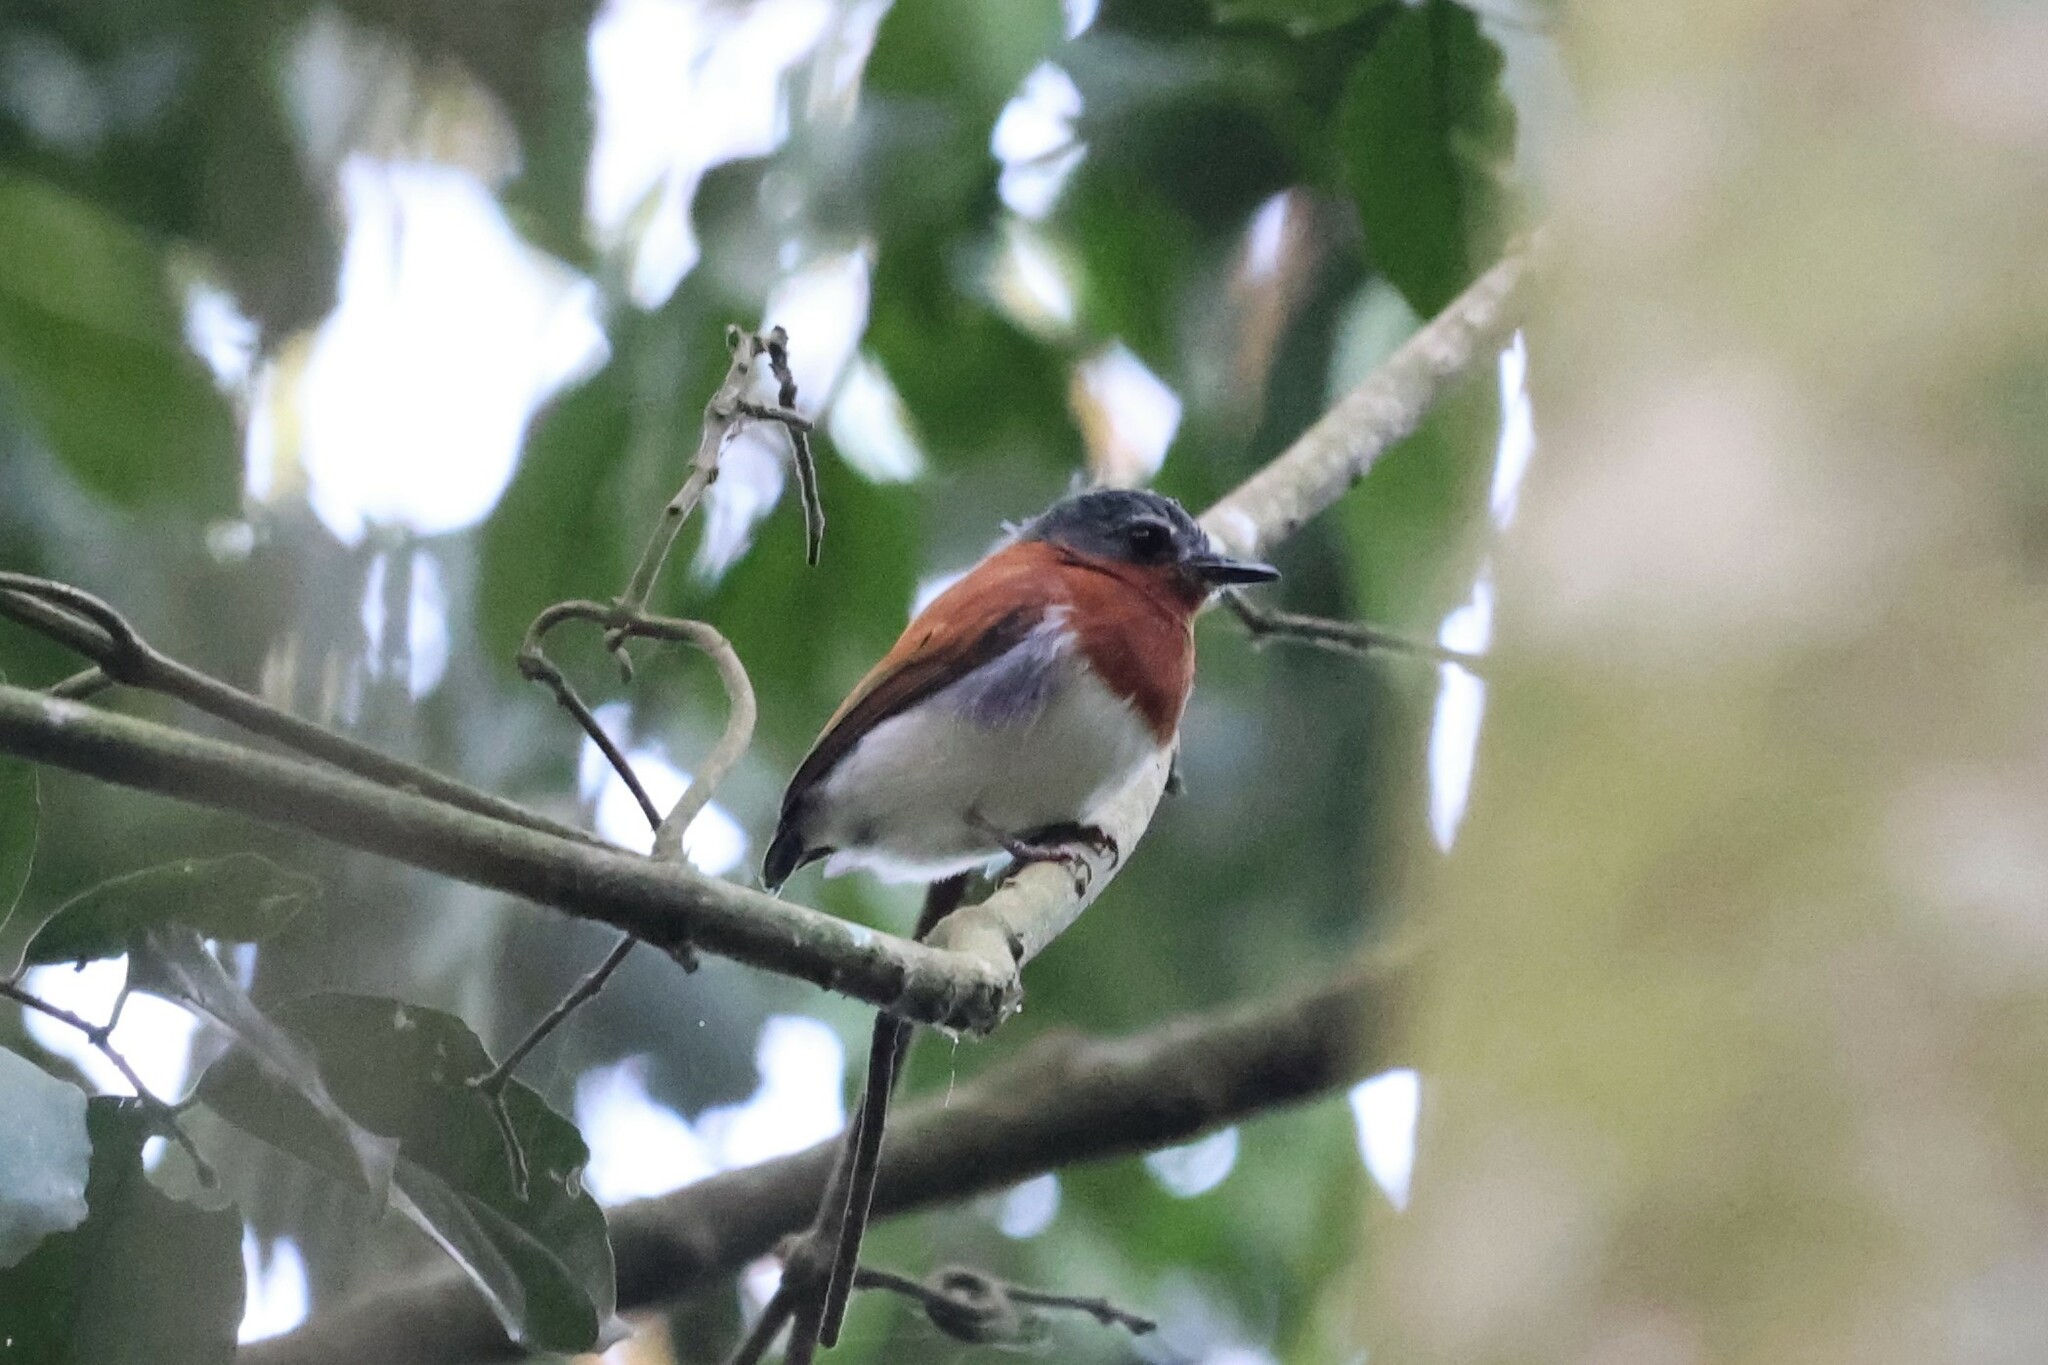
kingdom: Animalia
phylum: Chordata
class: Aves
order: Passeriformes
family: Platysteiridae
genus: Platysteira
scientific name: Platysteira castanea
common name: Chestnut wattle-eye
